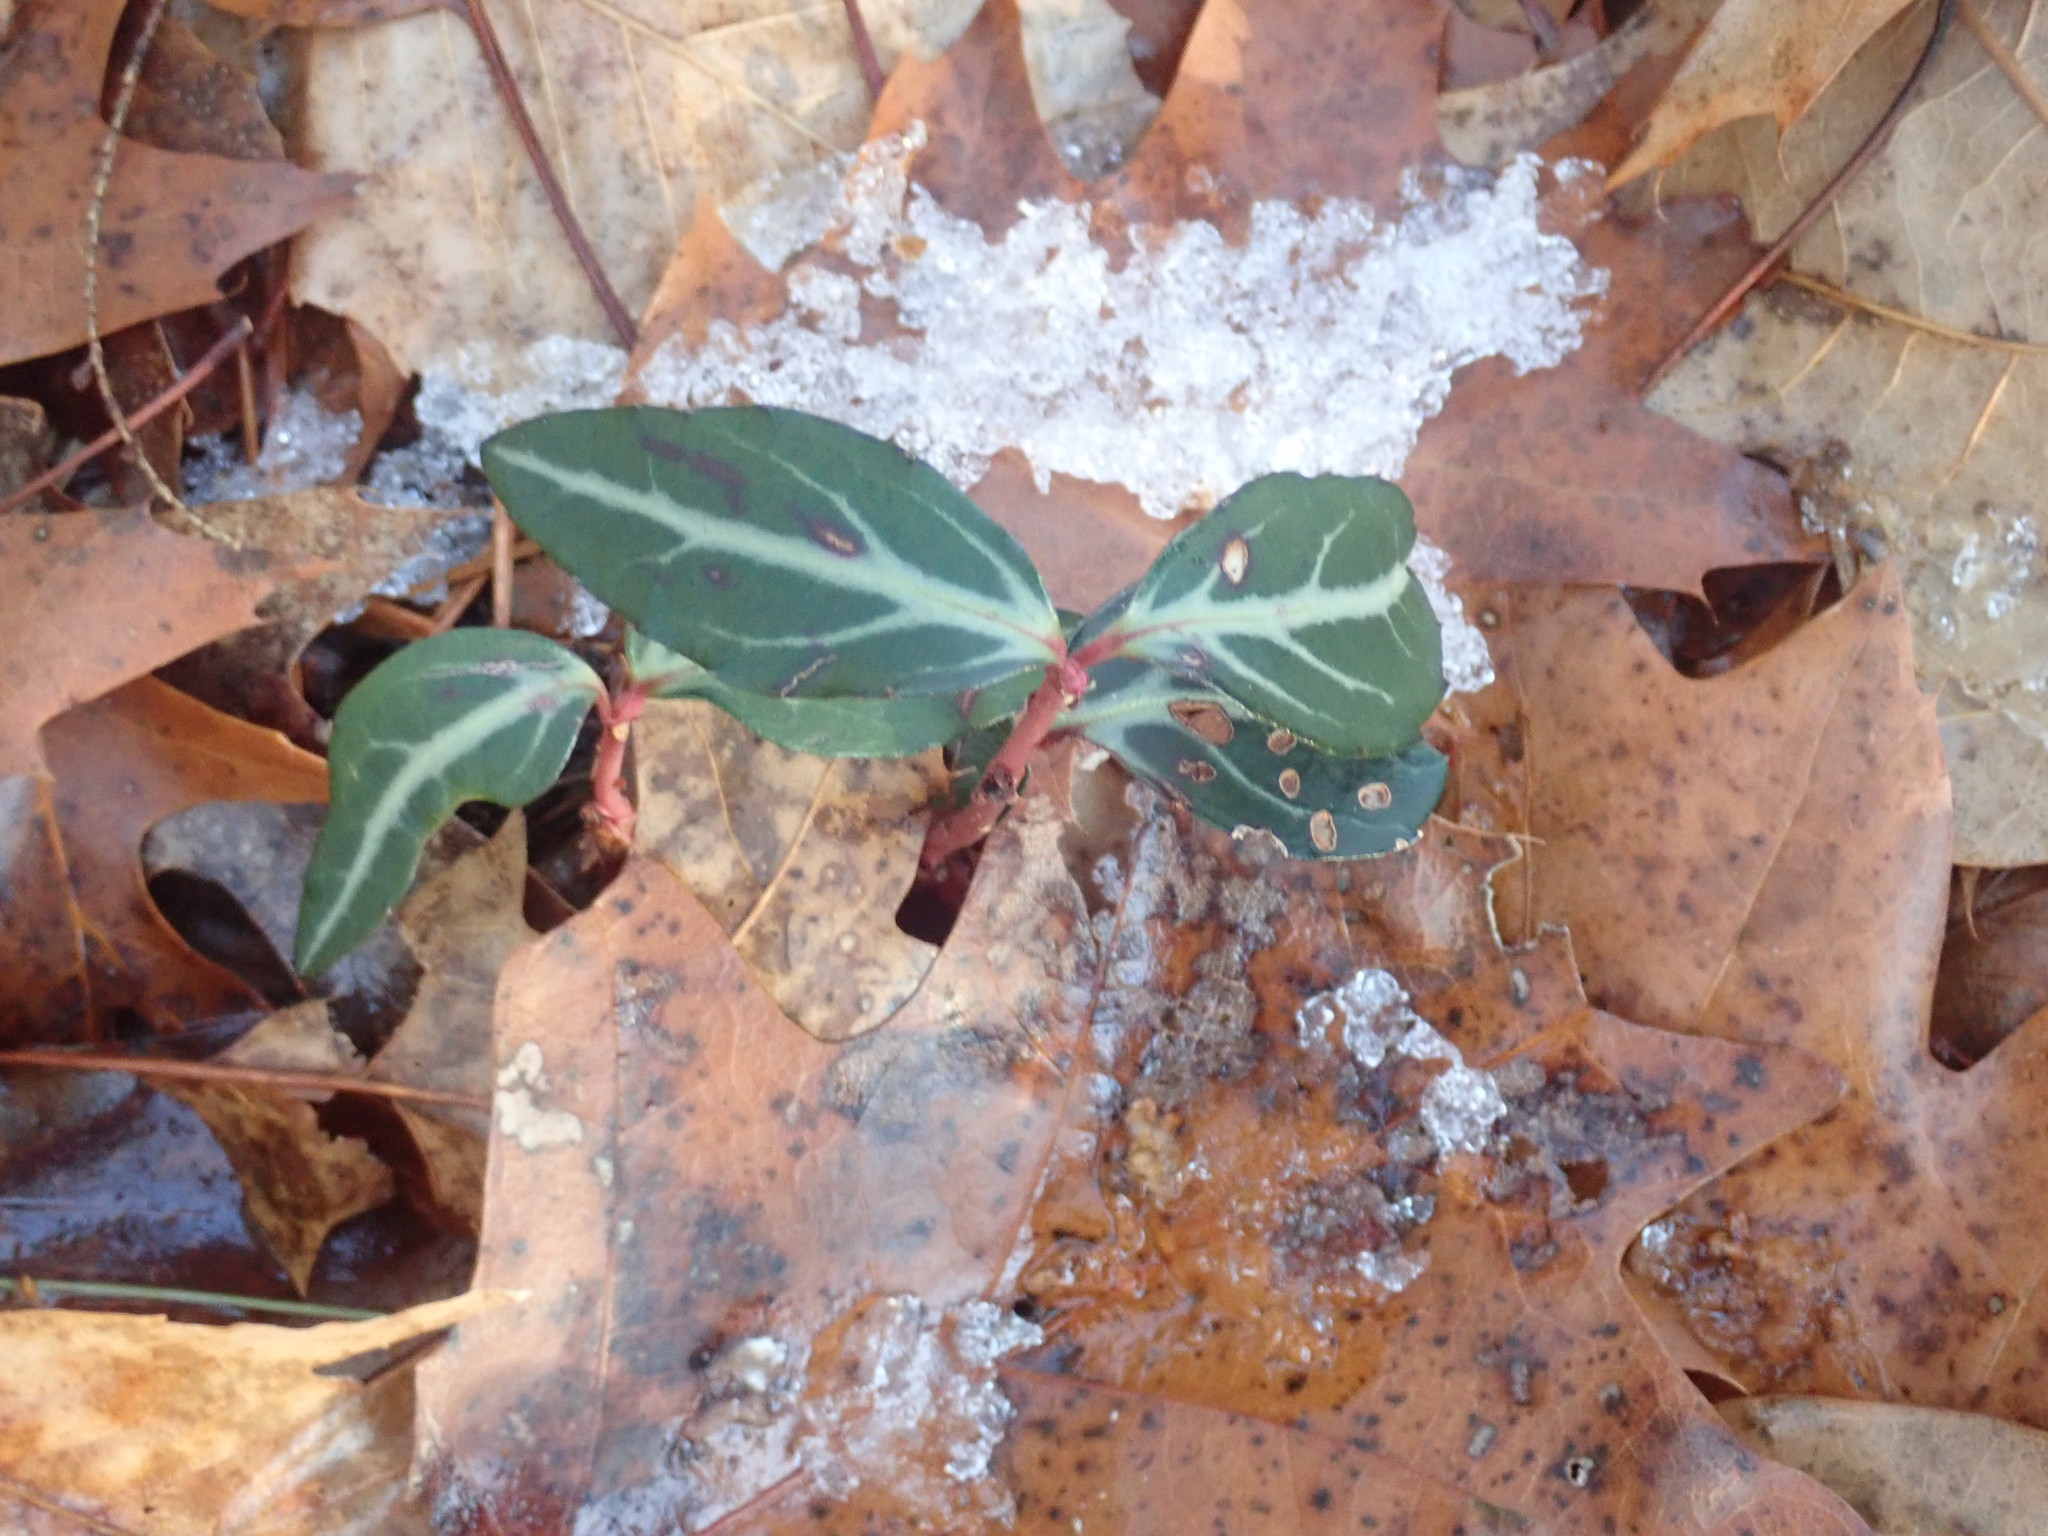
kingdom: Plantae
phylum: Tracheophyta
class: Magnoliopsida
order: Ericales
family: Ericaceae
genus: Chimaphila
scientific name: Chimaphila maculata
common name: Spotted pipsissewa
